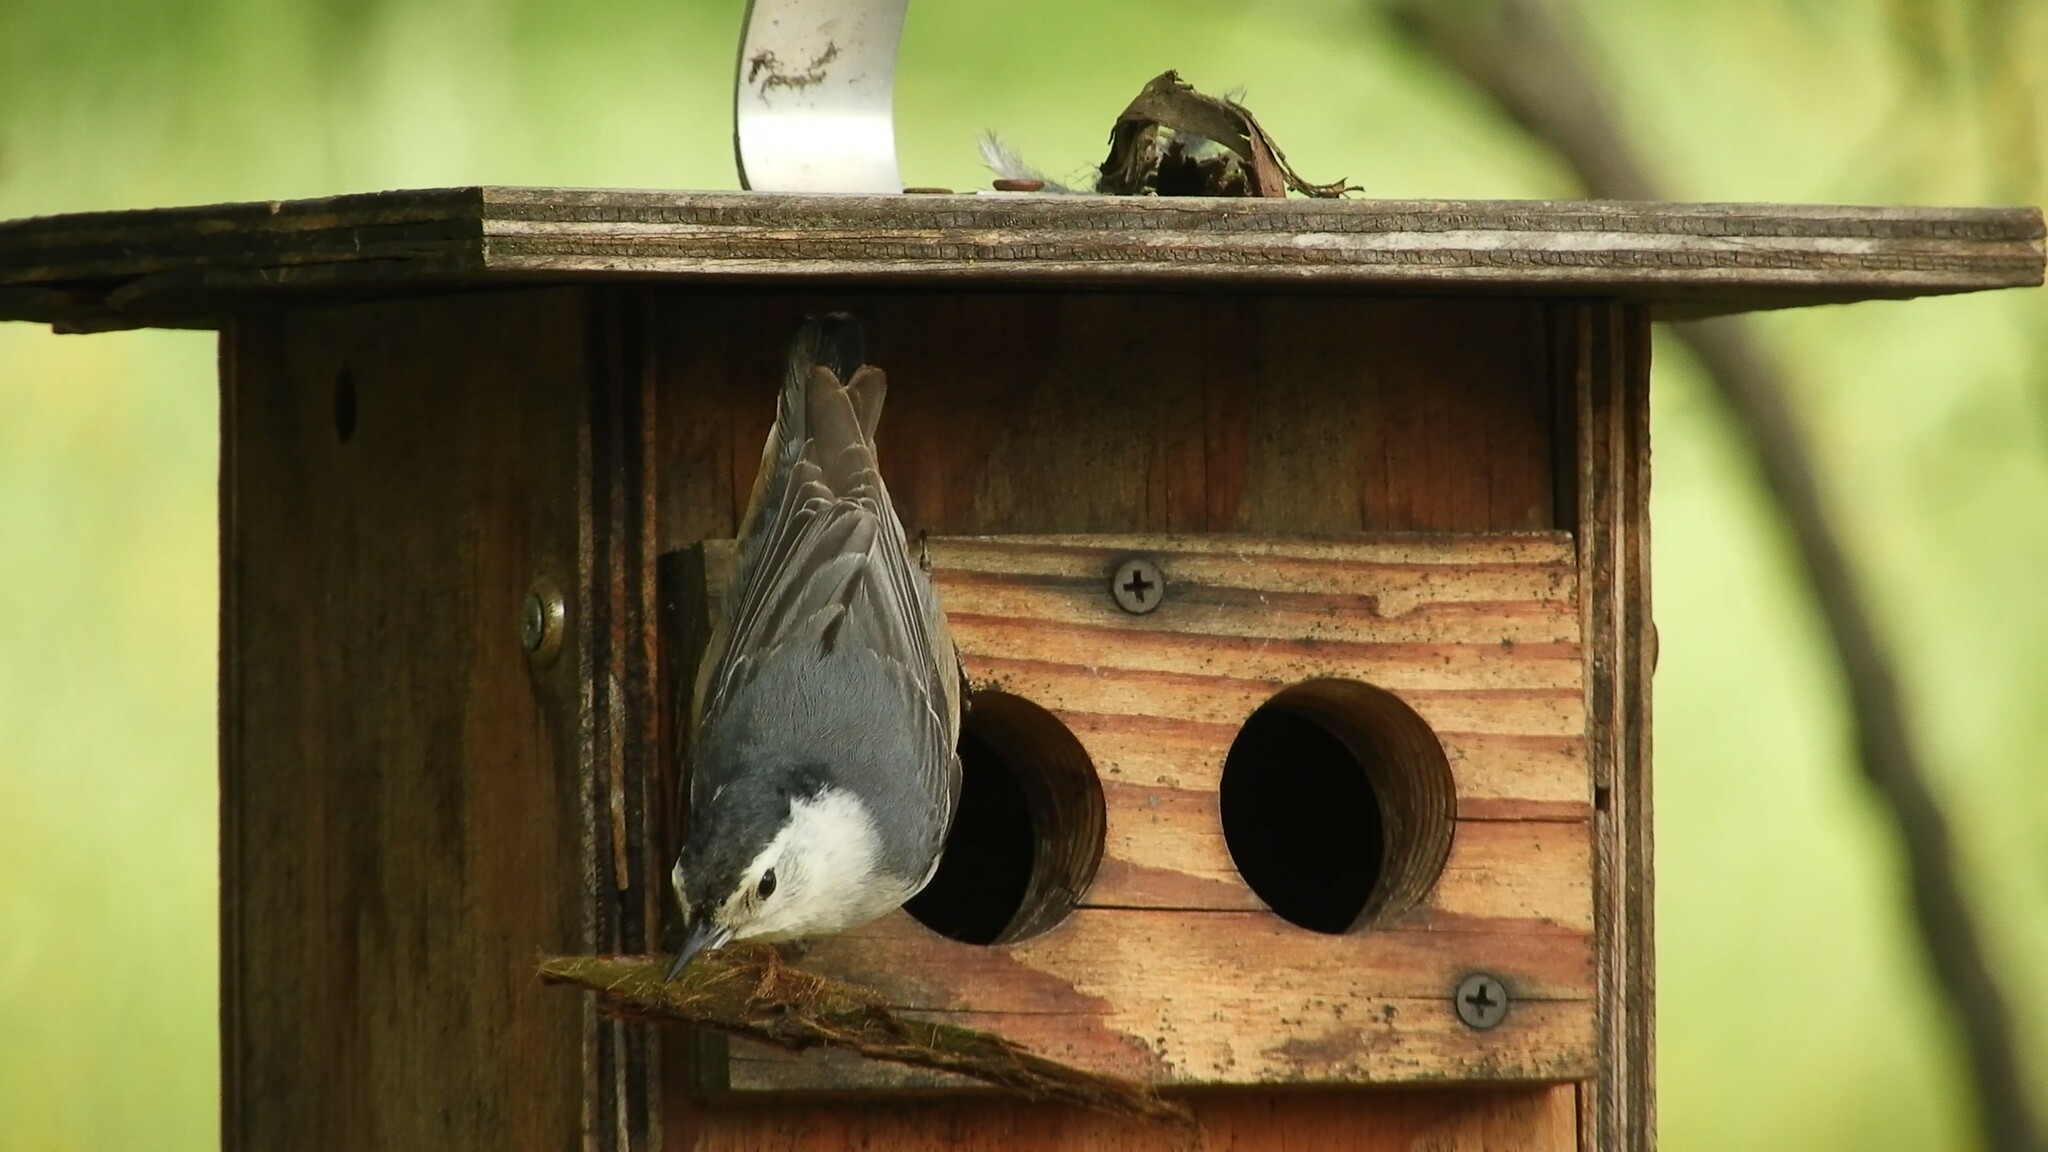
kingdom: Animalia
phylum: Chordata
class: Aves
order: Passeriformes
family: Sittidae
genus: Sitta
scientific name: Sitta carolinensis
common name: White-breasted nuthatch
